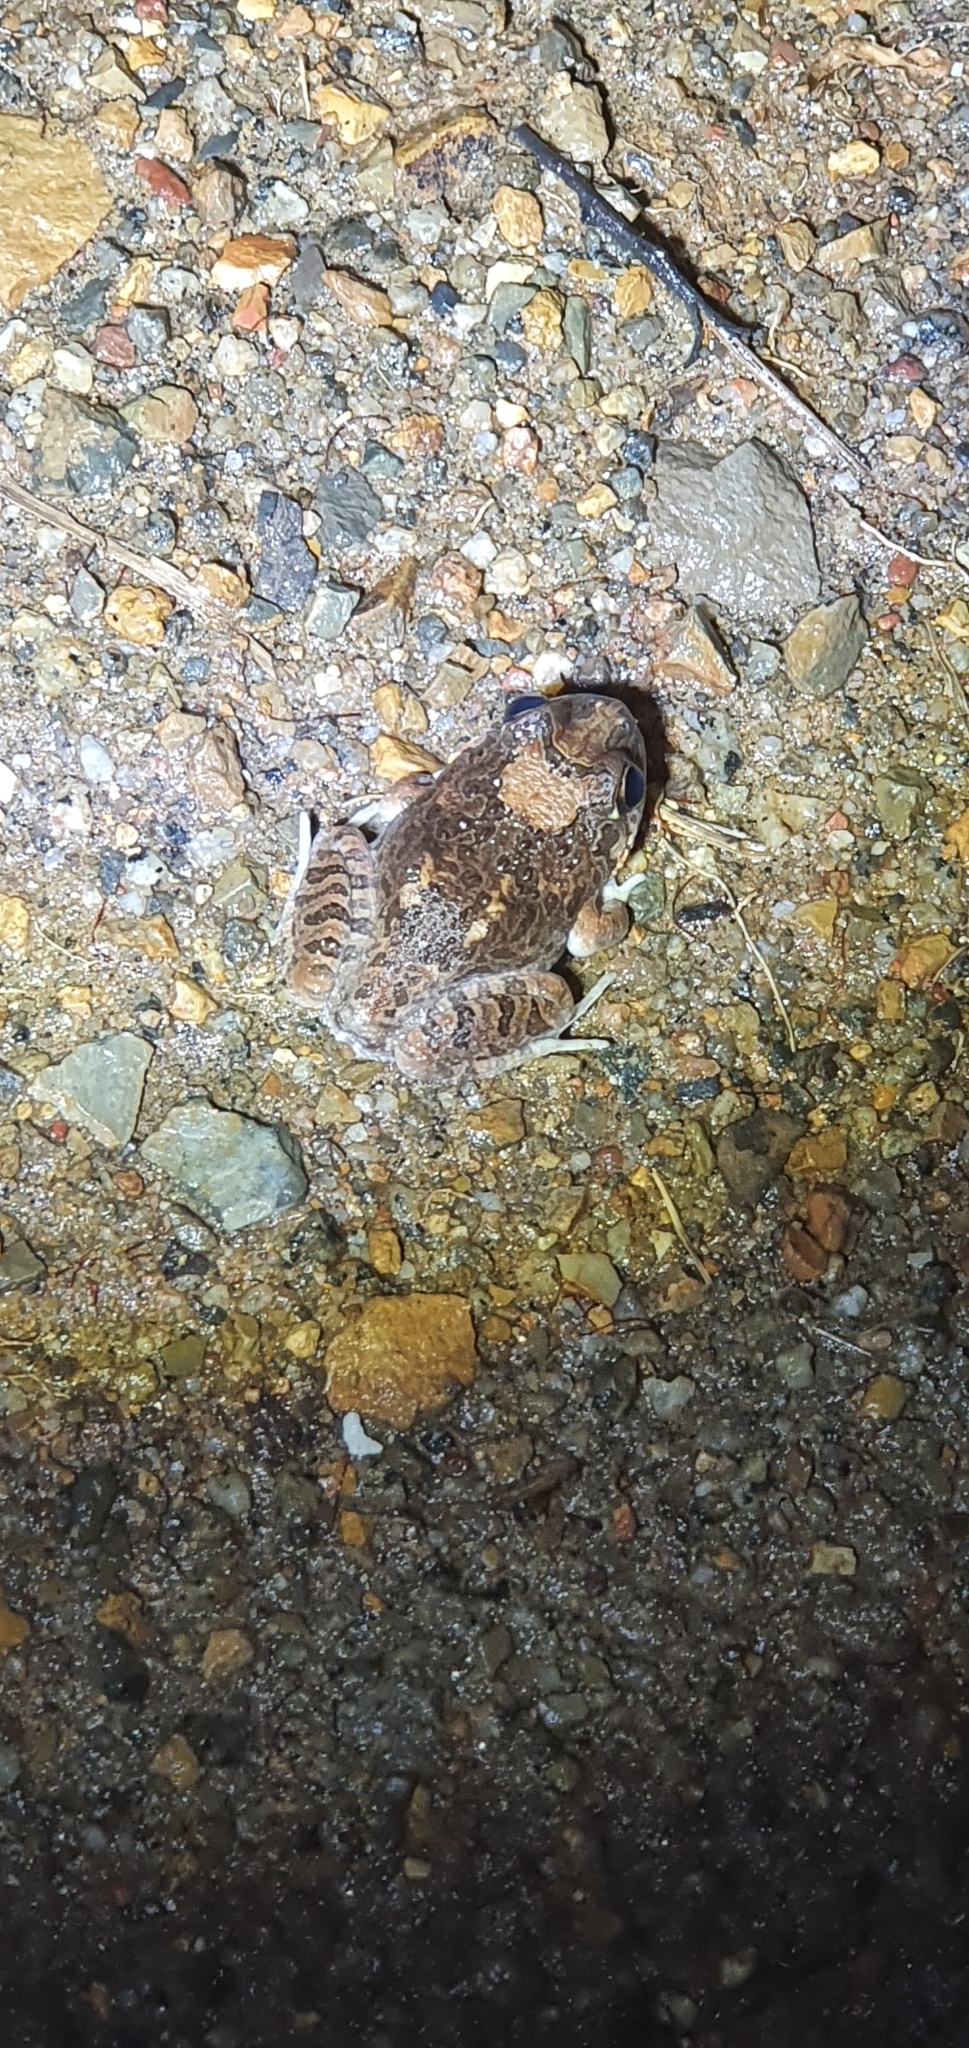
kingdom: Animalia
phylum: Chordata
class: Amphibia
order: Anura
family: Limnodynastidae
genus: Platyplectrum
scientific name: Platyplectrum ornatum
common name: Ornate burrowing frog
